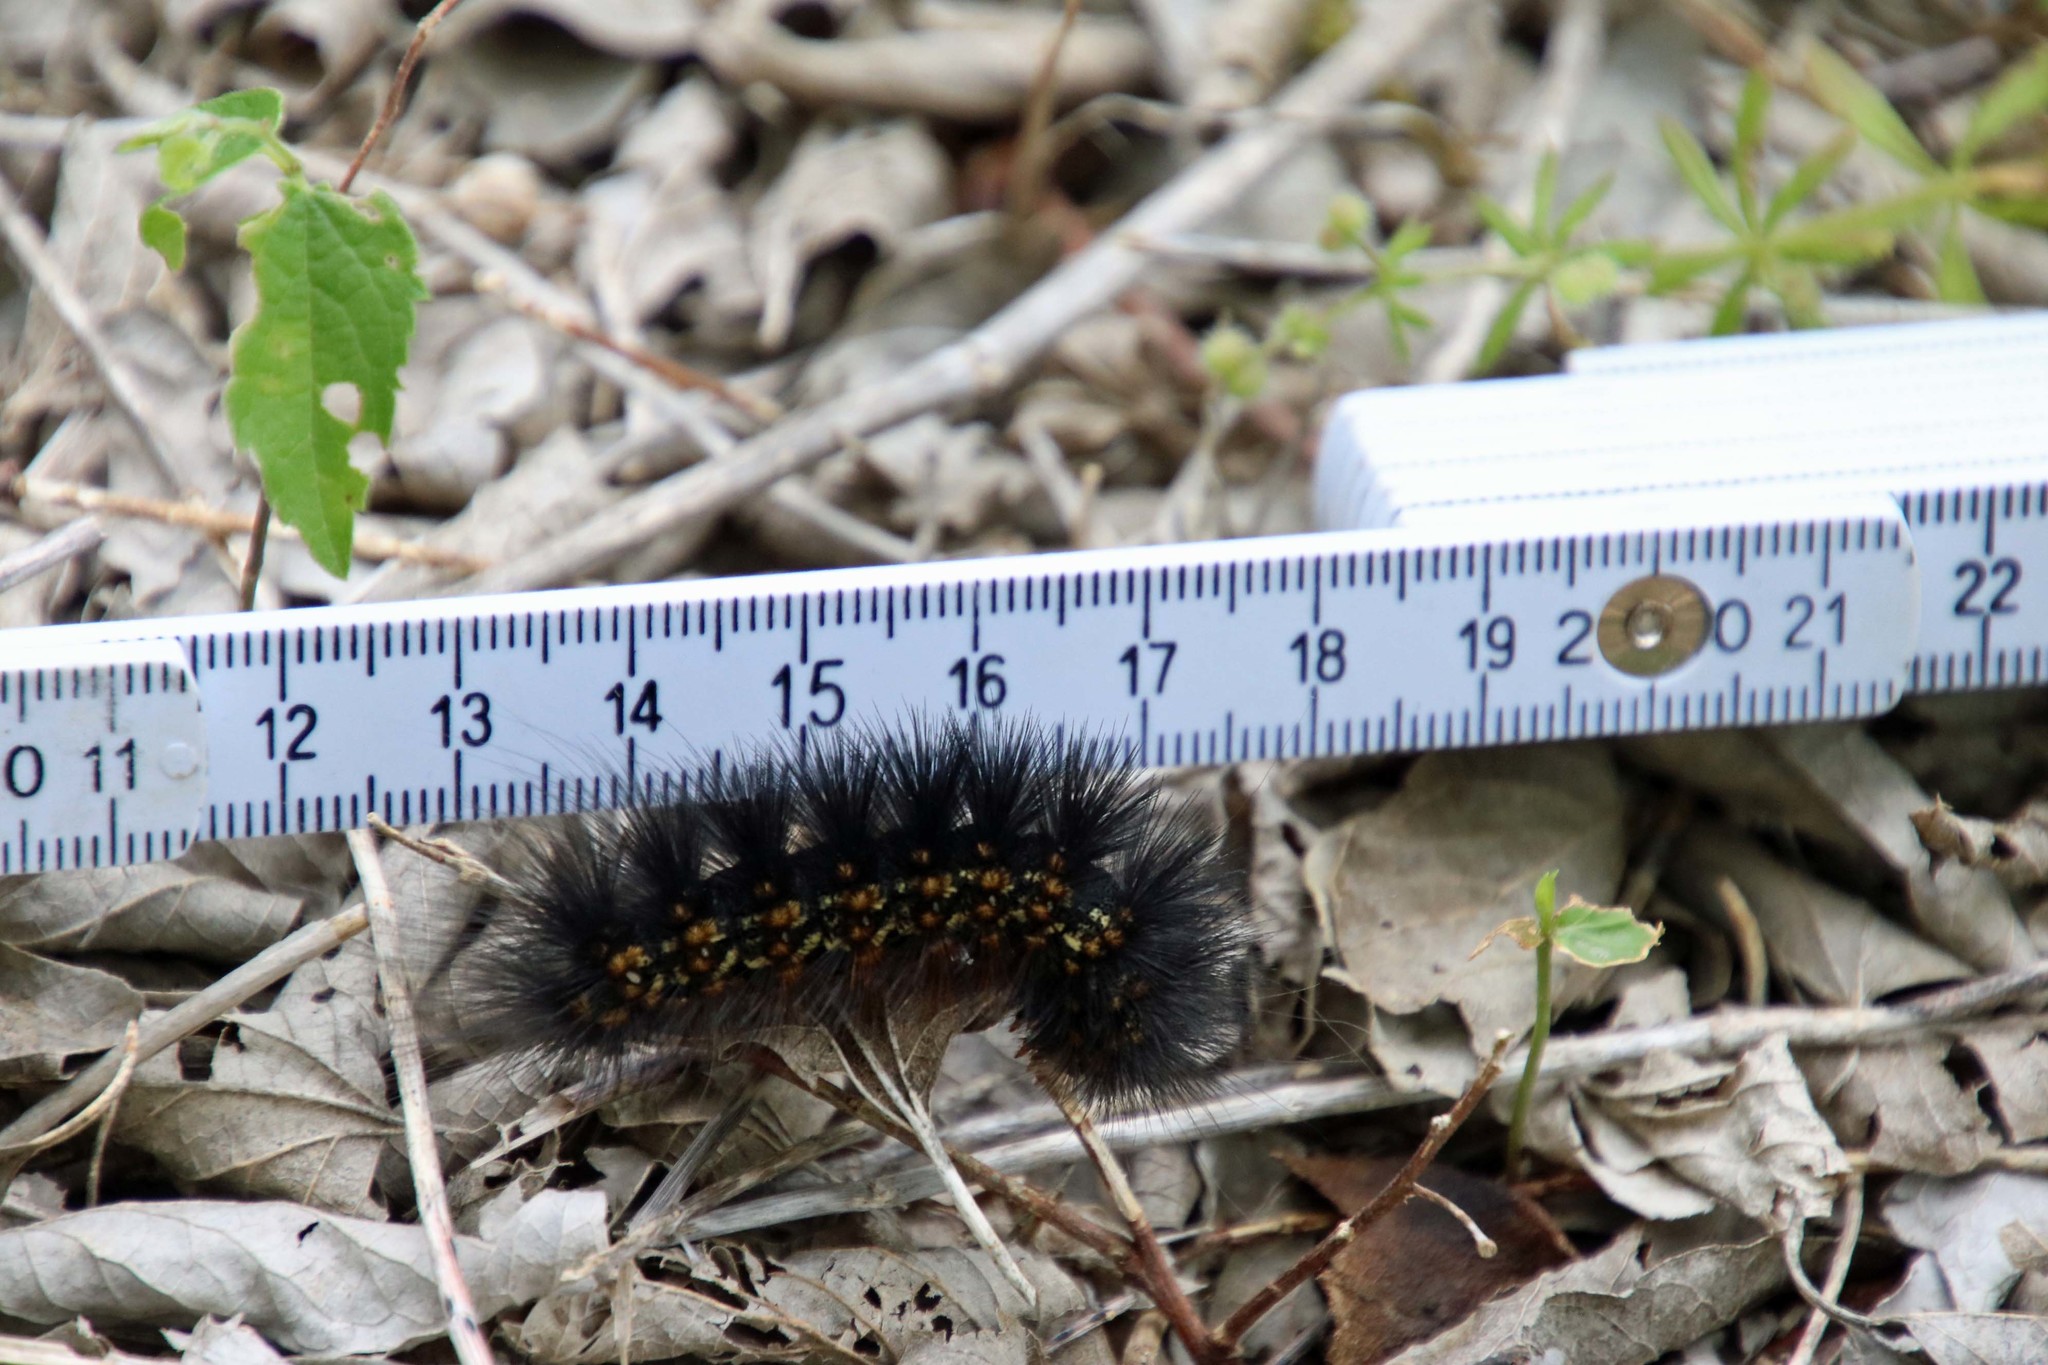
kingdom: Animalia
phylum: Arthropoda
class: Insecta
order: Lepidoptera
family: Erebidae
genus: Estigmene
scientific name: Estigmene acrea
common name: Salt marsh moth
